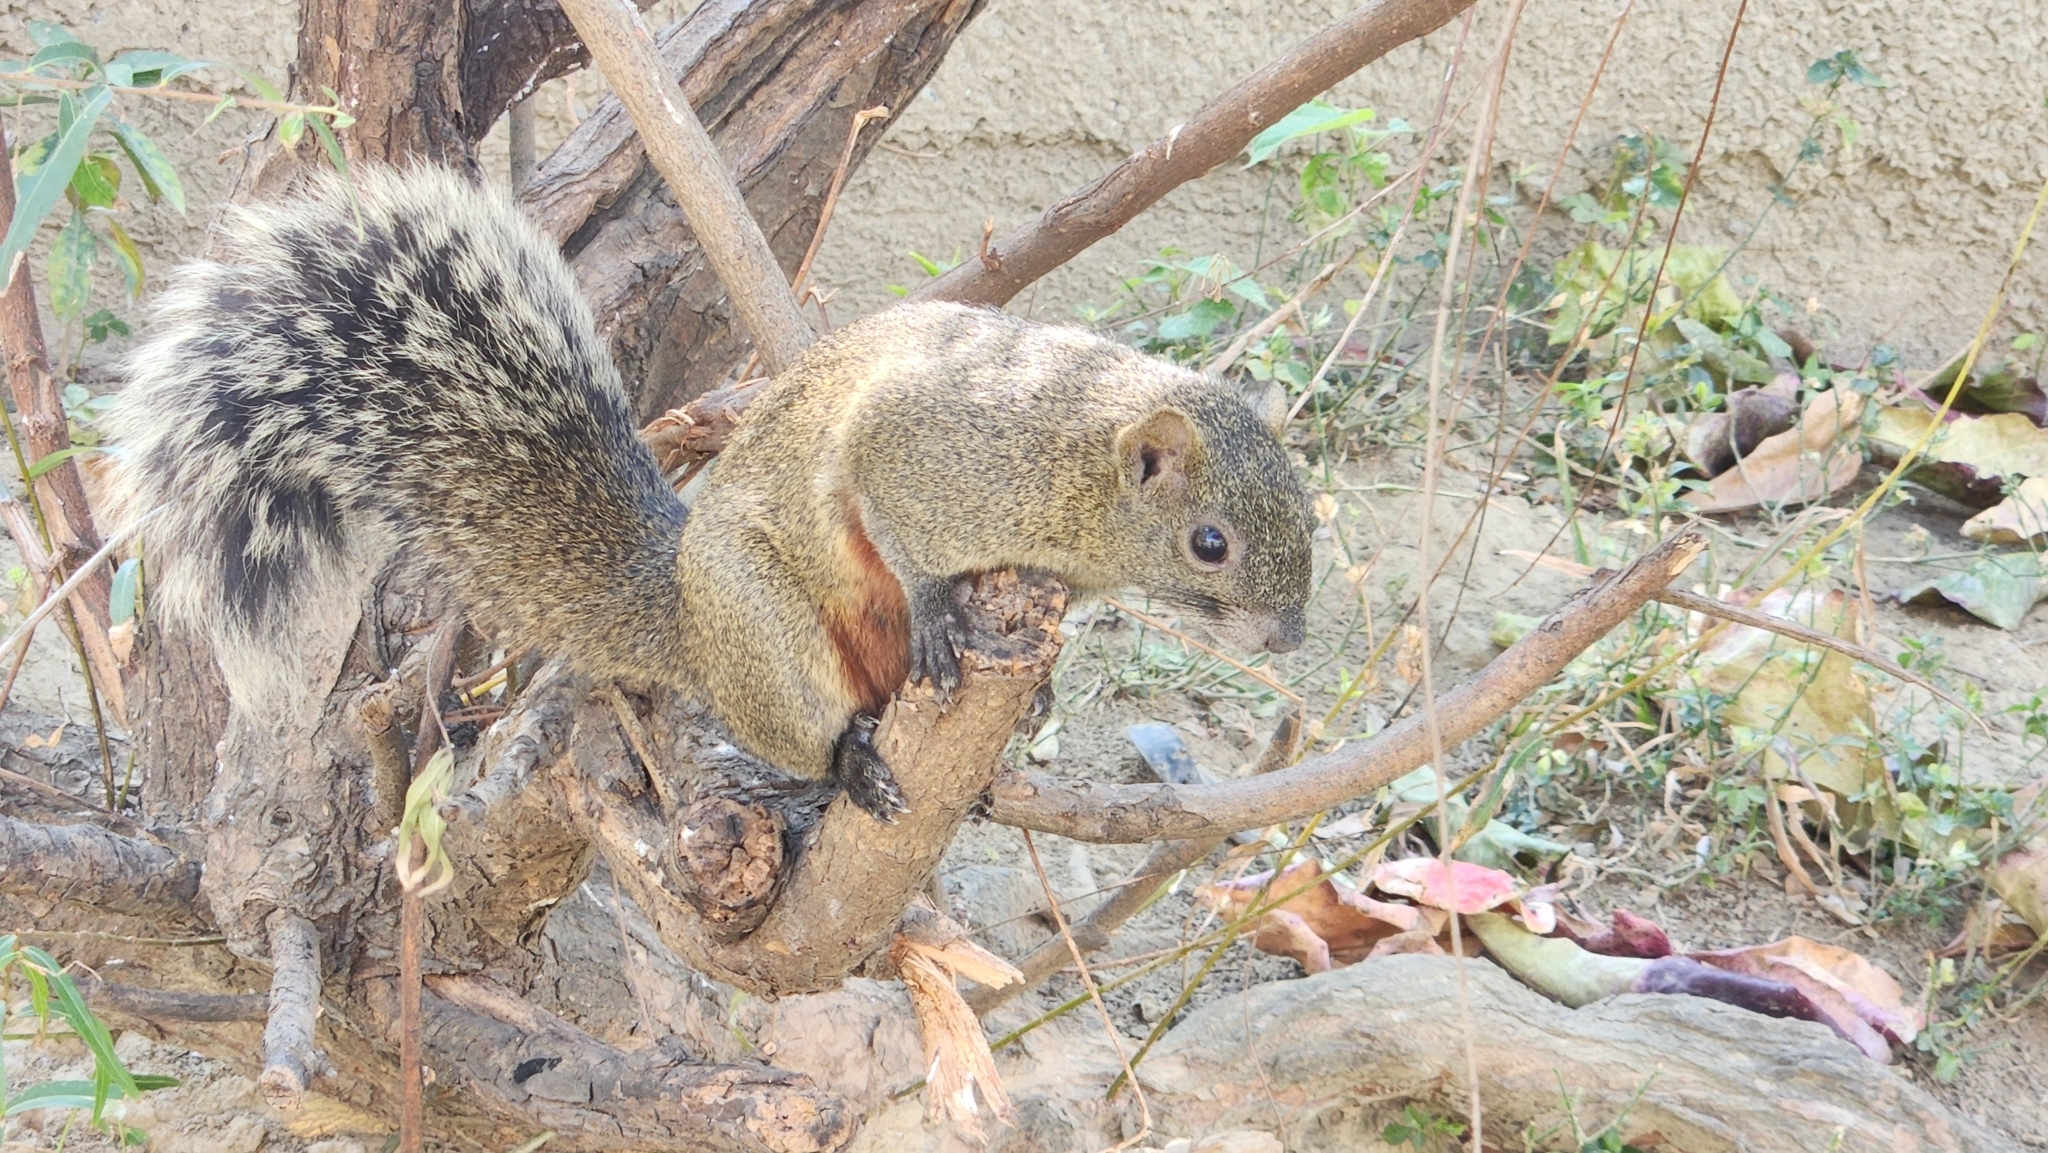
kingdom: Animalia
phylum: Chordata
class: Mammalia
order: Rodentia
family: Sciuridae
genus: Callosciurus
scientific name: Callosciurus erythraeus
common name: Pallas's squirrel
